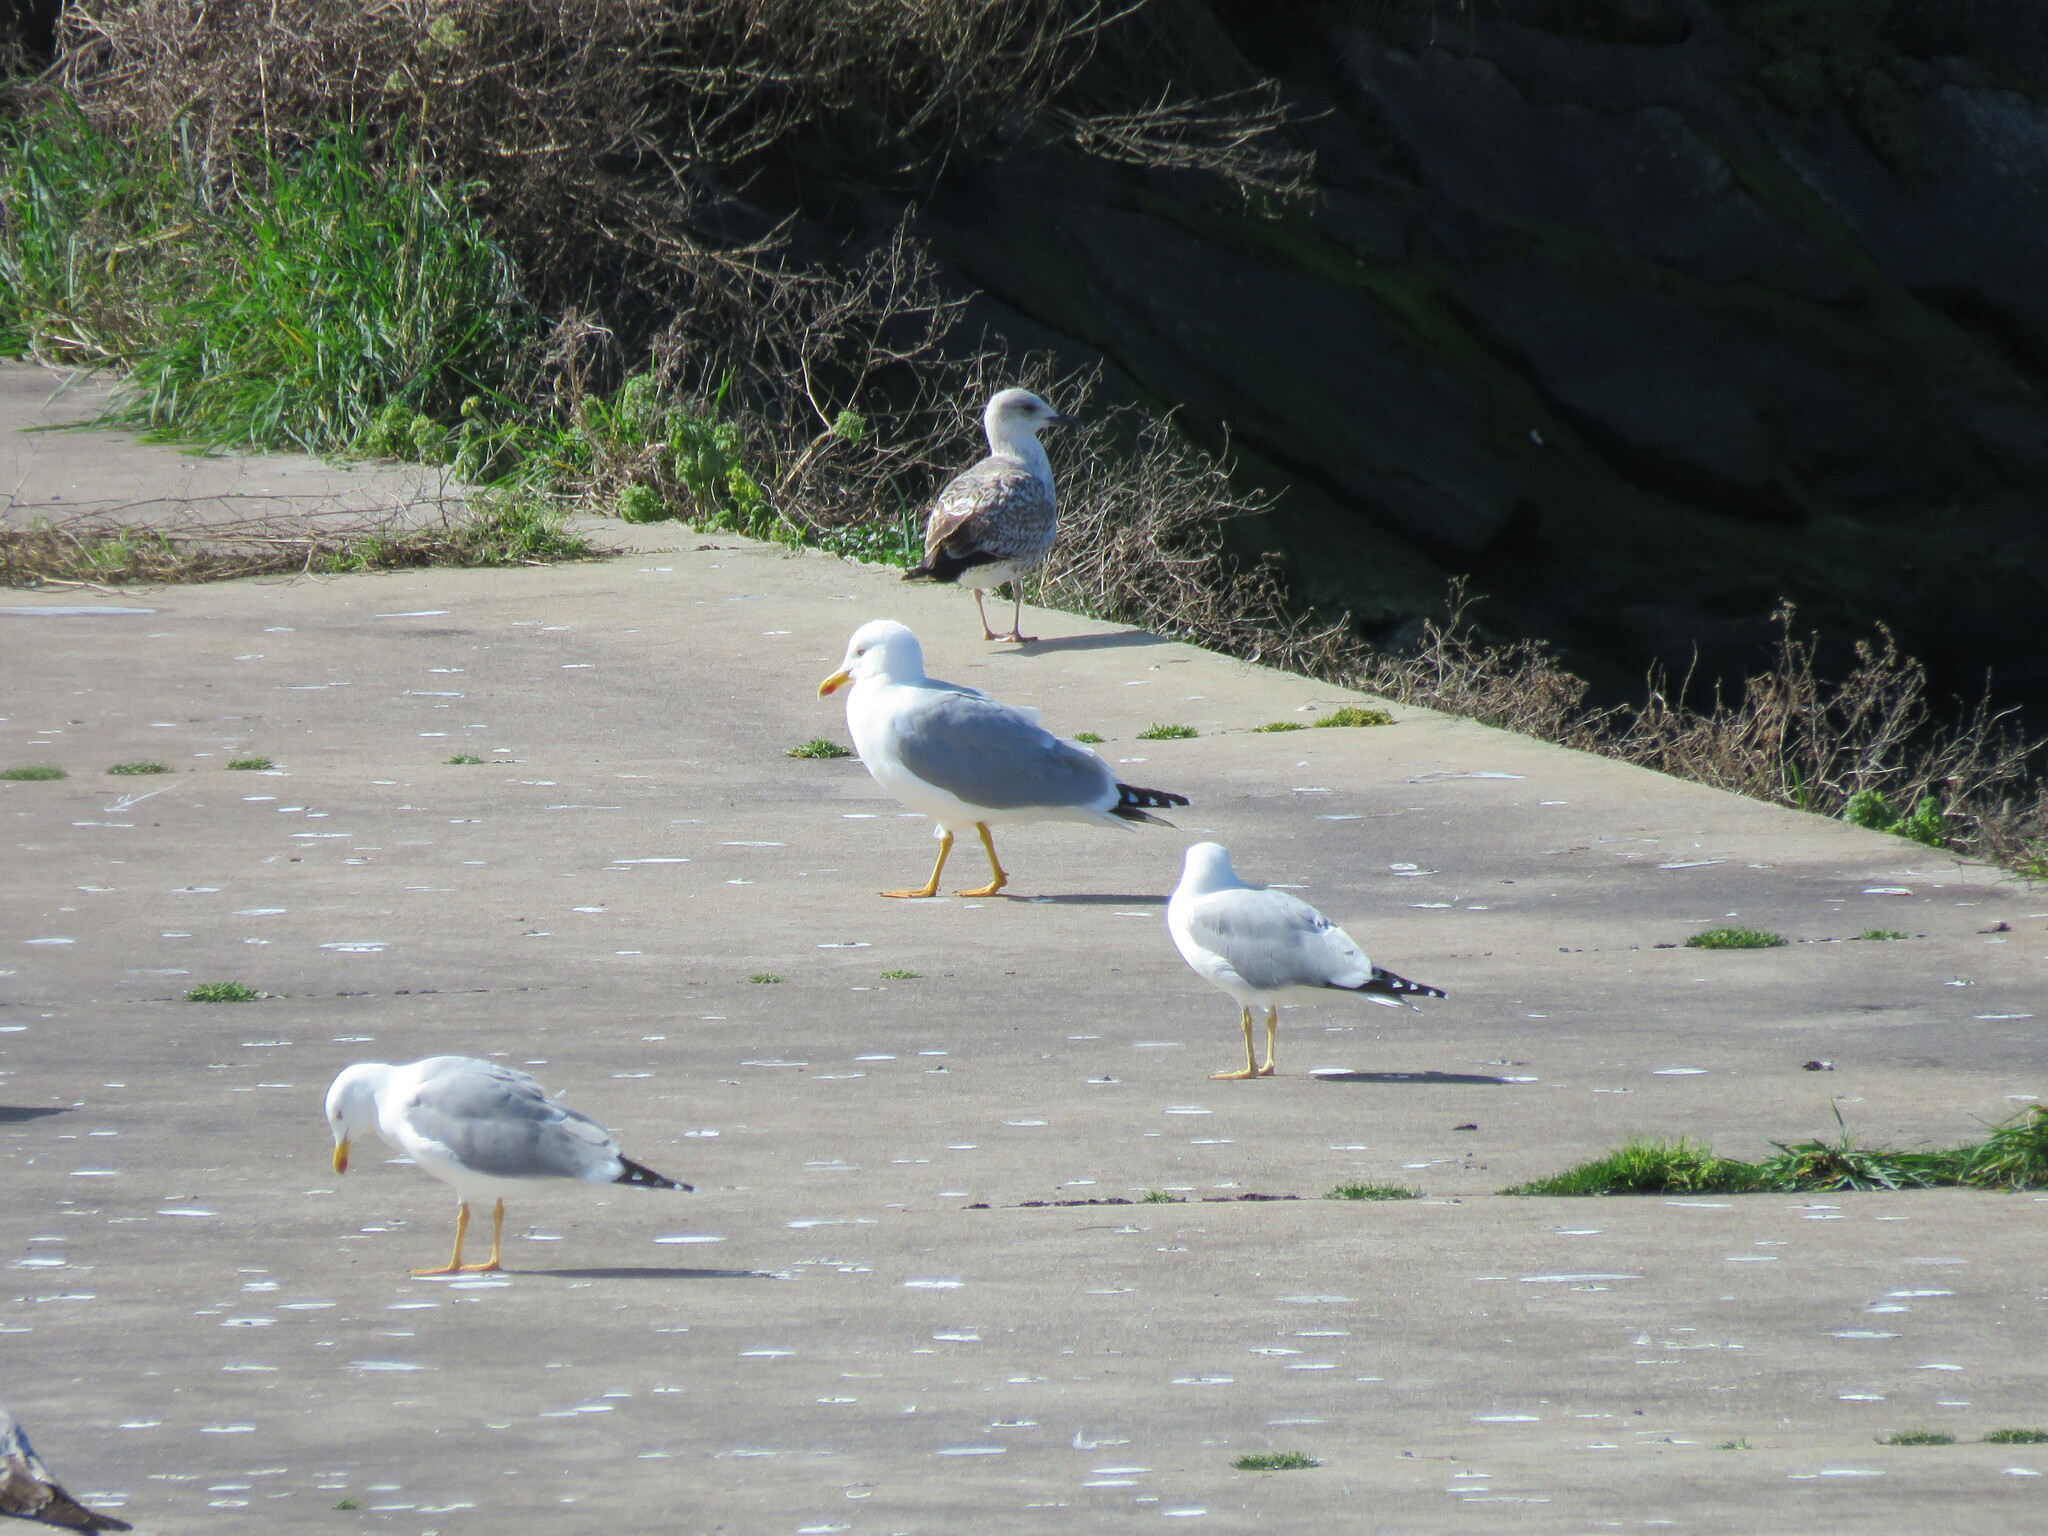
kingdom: Animalia
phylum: Chordata
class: Aves
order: Charadriiformes
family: Laridae
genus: Larus
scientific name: Larus michahellis
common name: Yellow-legged gull
